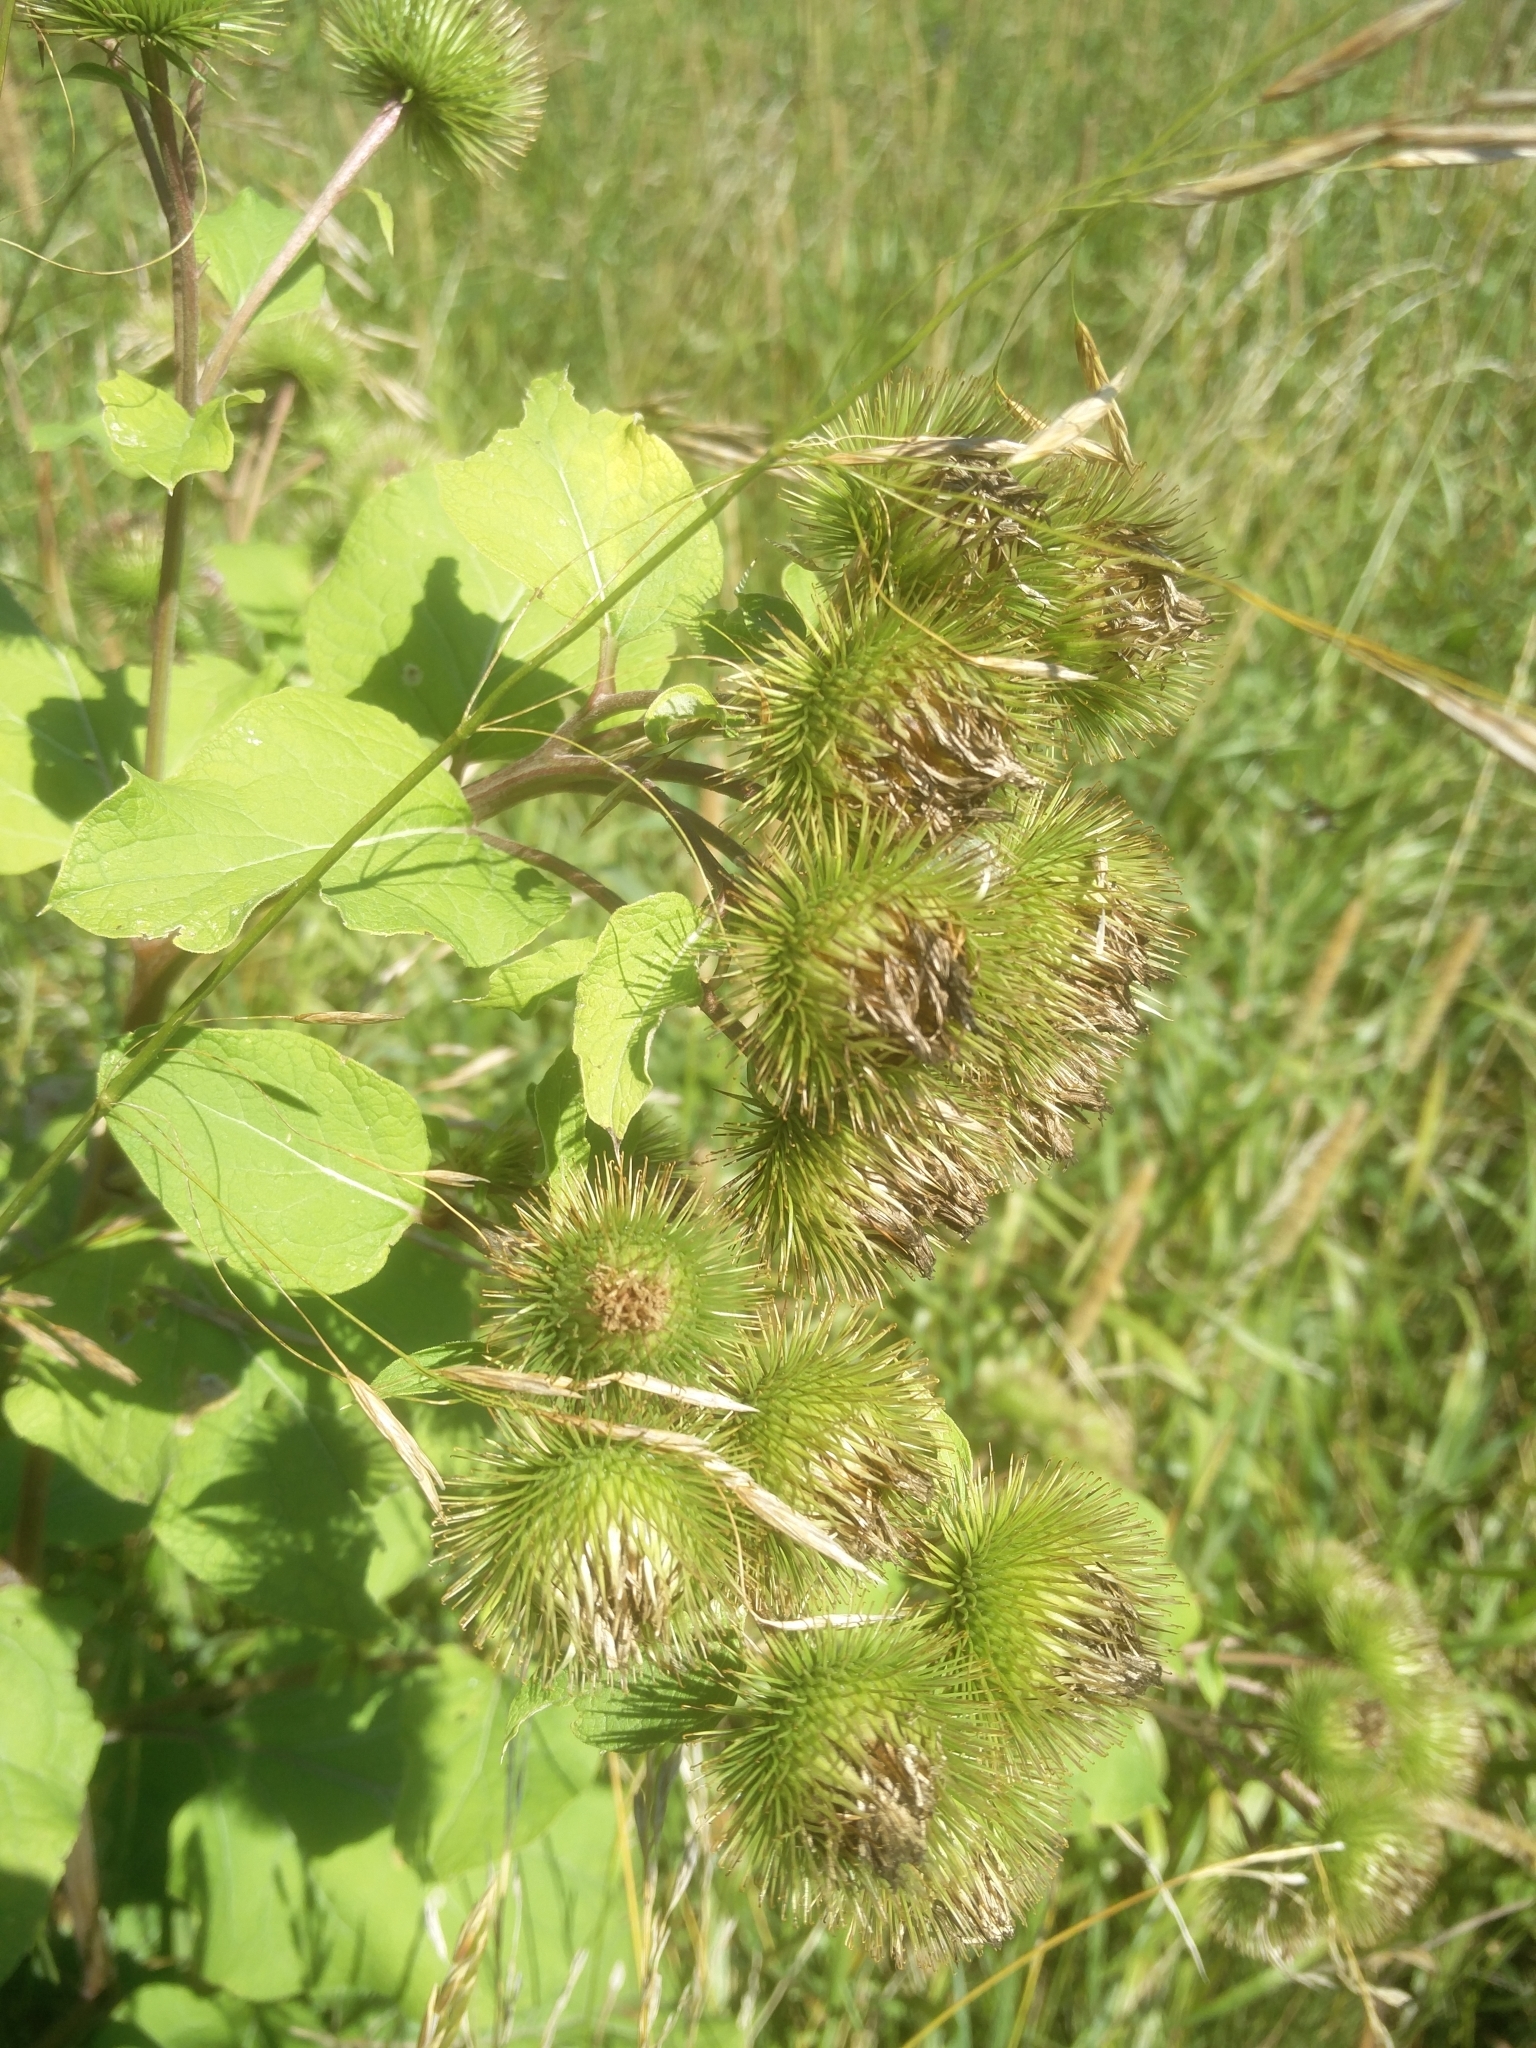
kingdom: Plantae
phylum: Tracheophyta
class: Magnoliopsida
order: Asterales
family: Asteraceae
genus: Arctium
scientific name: Arctium lappa
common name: Greater burdock
